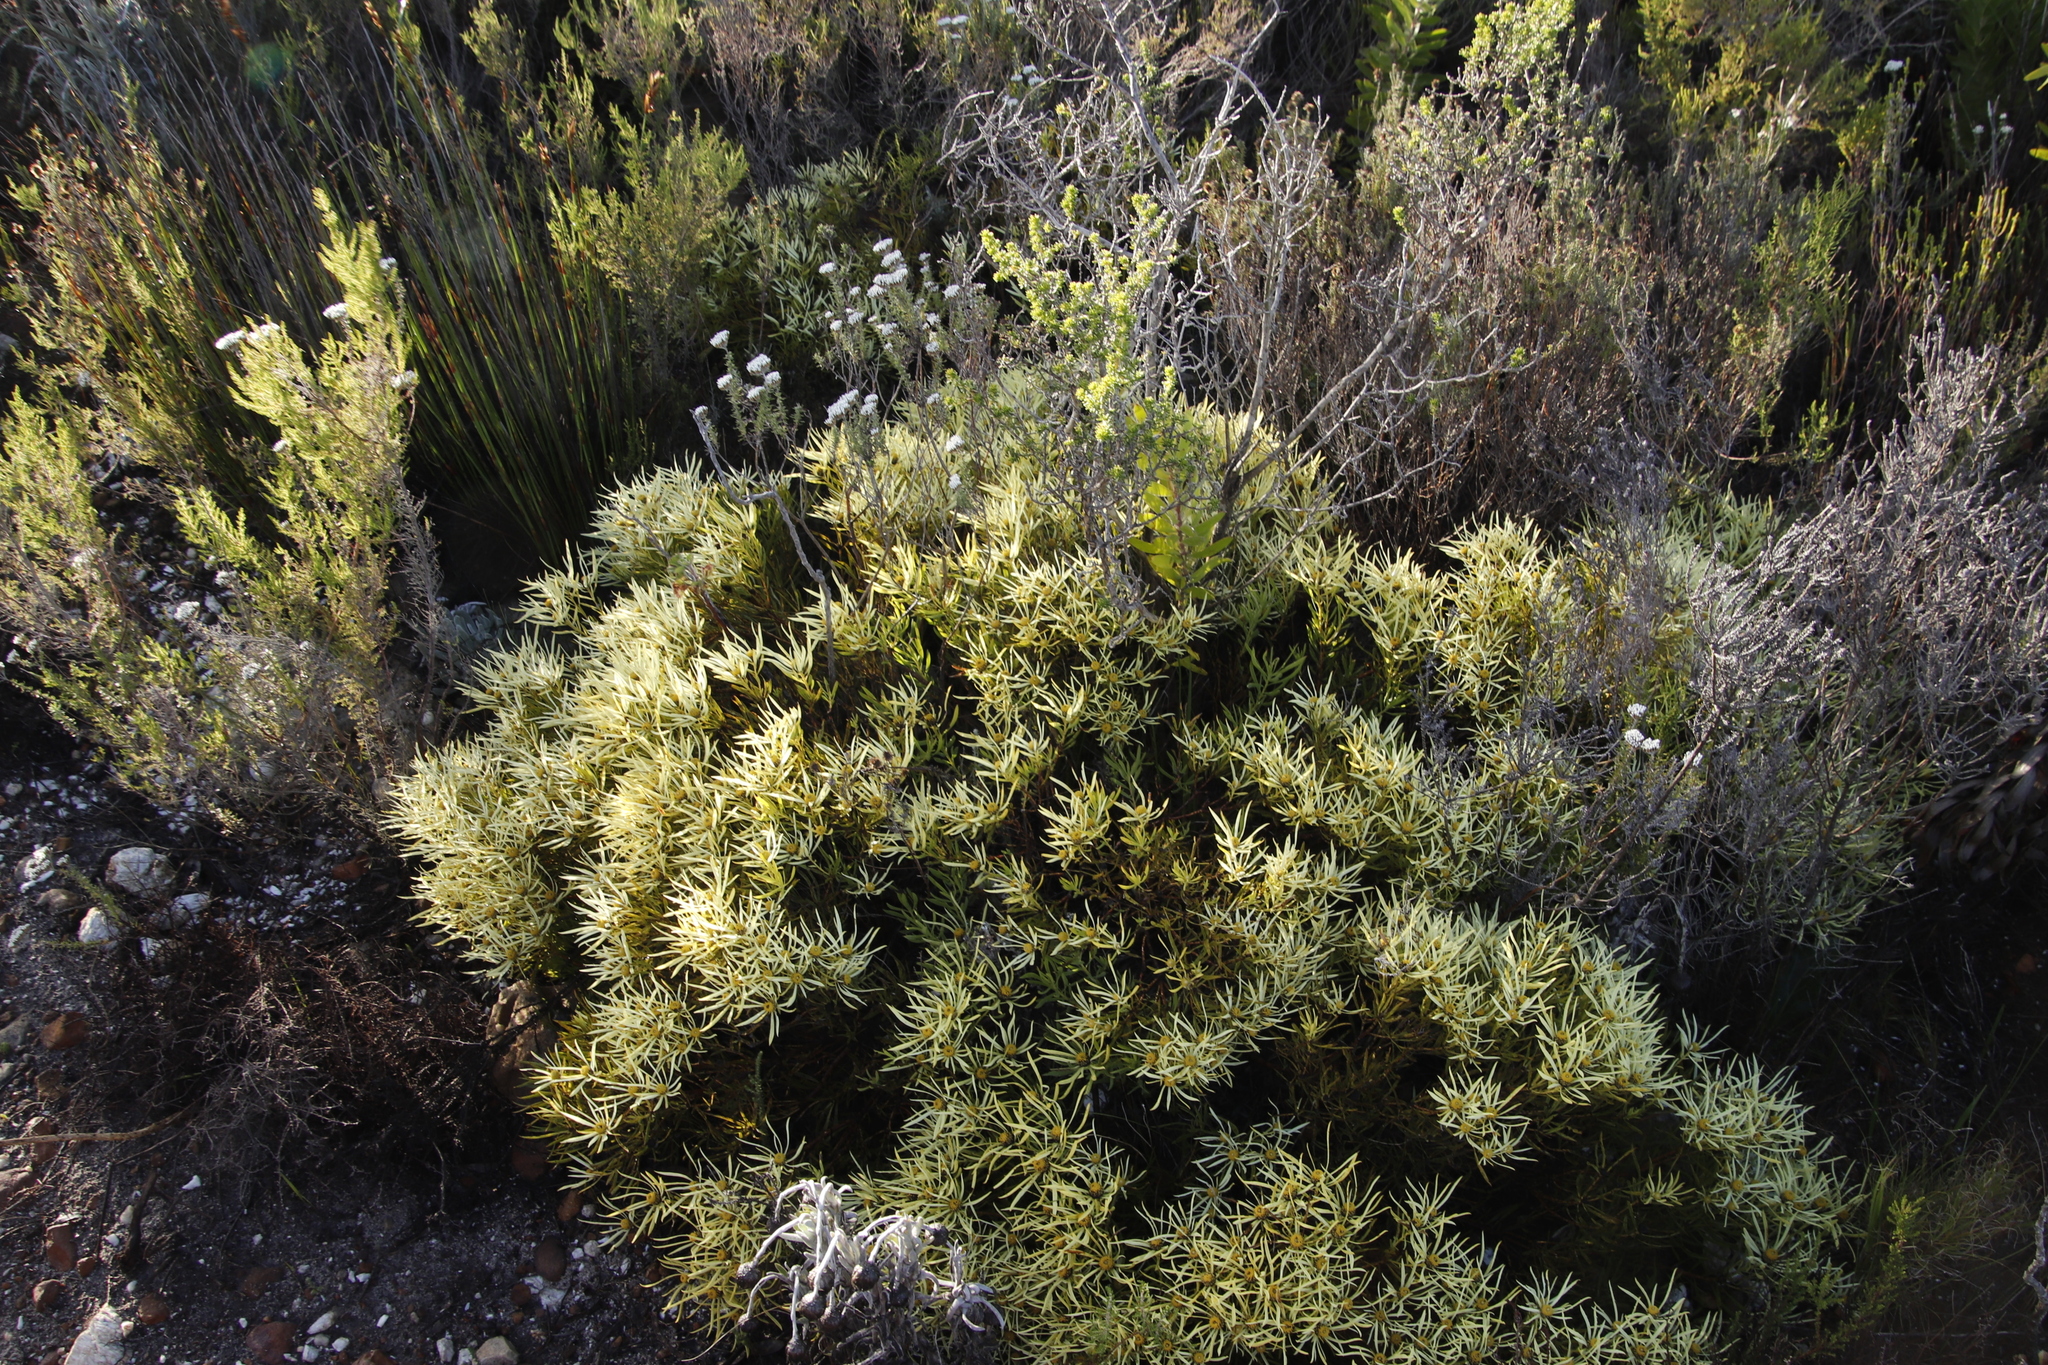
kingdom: Plantae
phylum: Tracheophyta
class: Magnoliopsida
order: Proteales
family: Proteaceae
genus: Leucadendron
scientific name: Leucadendron salignum
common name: Common sunshine conebush
